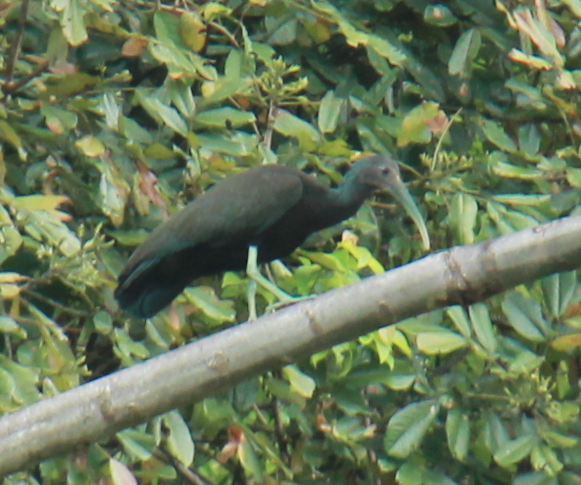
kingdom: Animalia
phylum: Chordata
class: Aves
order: Pelecaniformes
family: Threskiornithidae
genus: Mesembrinibis
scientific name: Mesembrinibis cayennensis
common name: Green ibis
